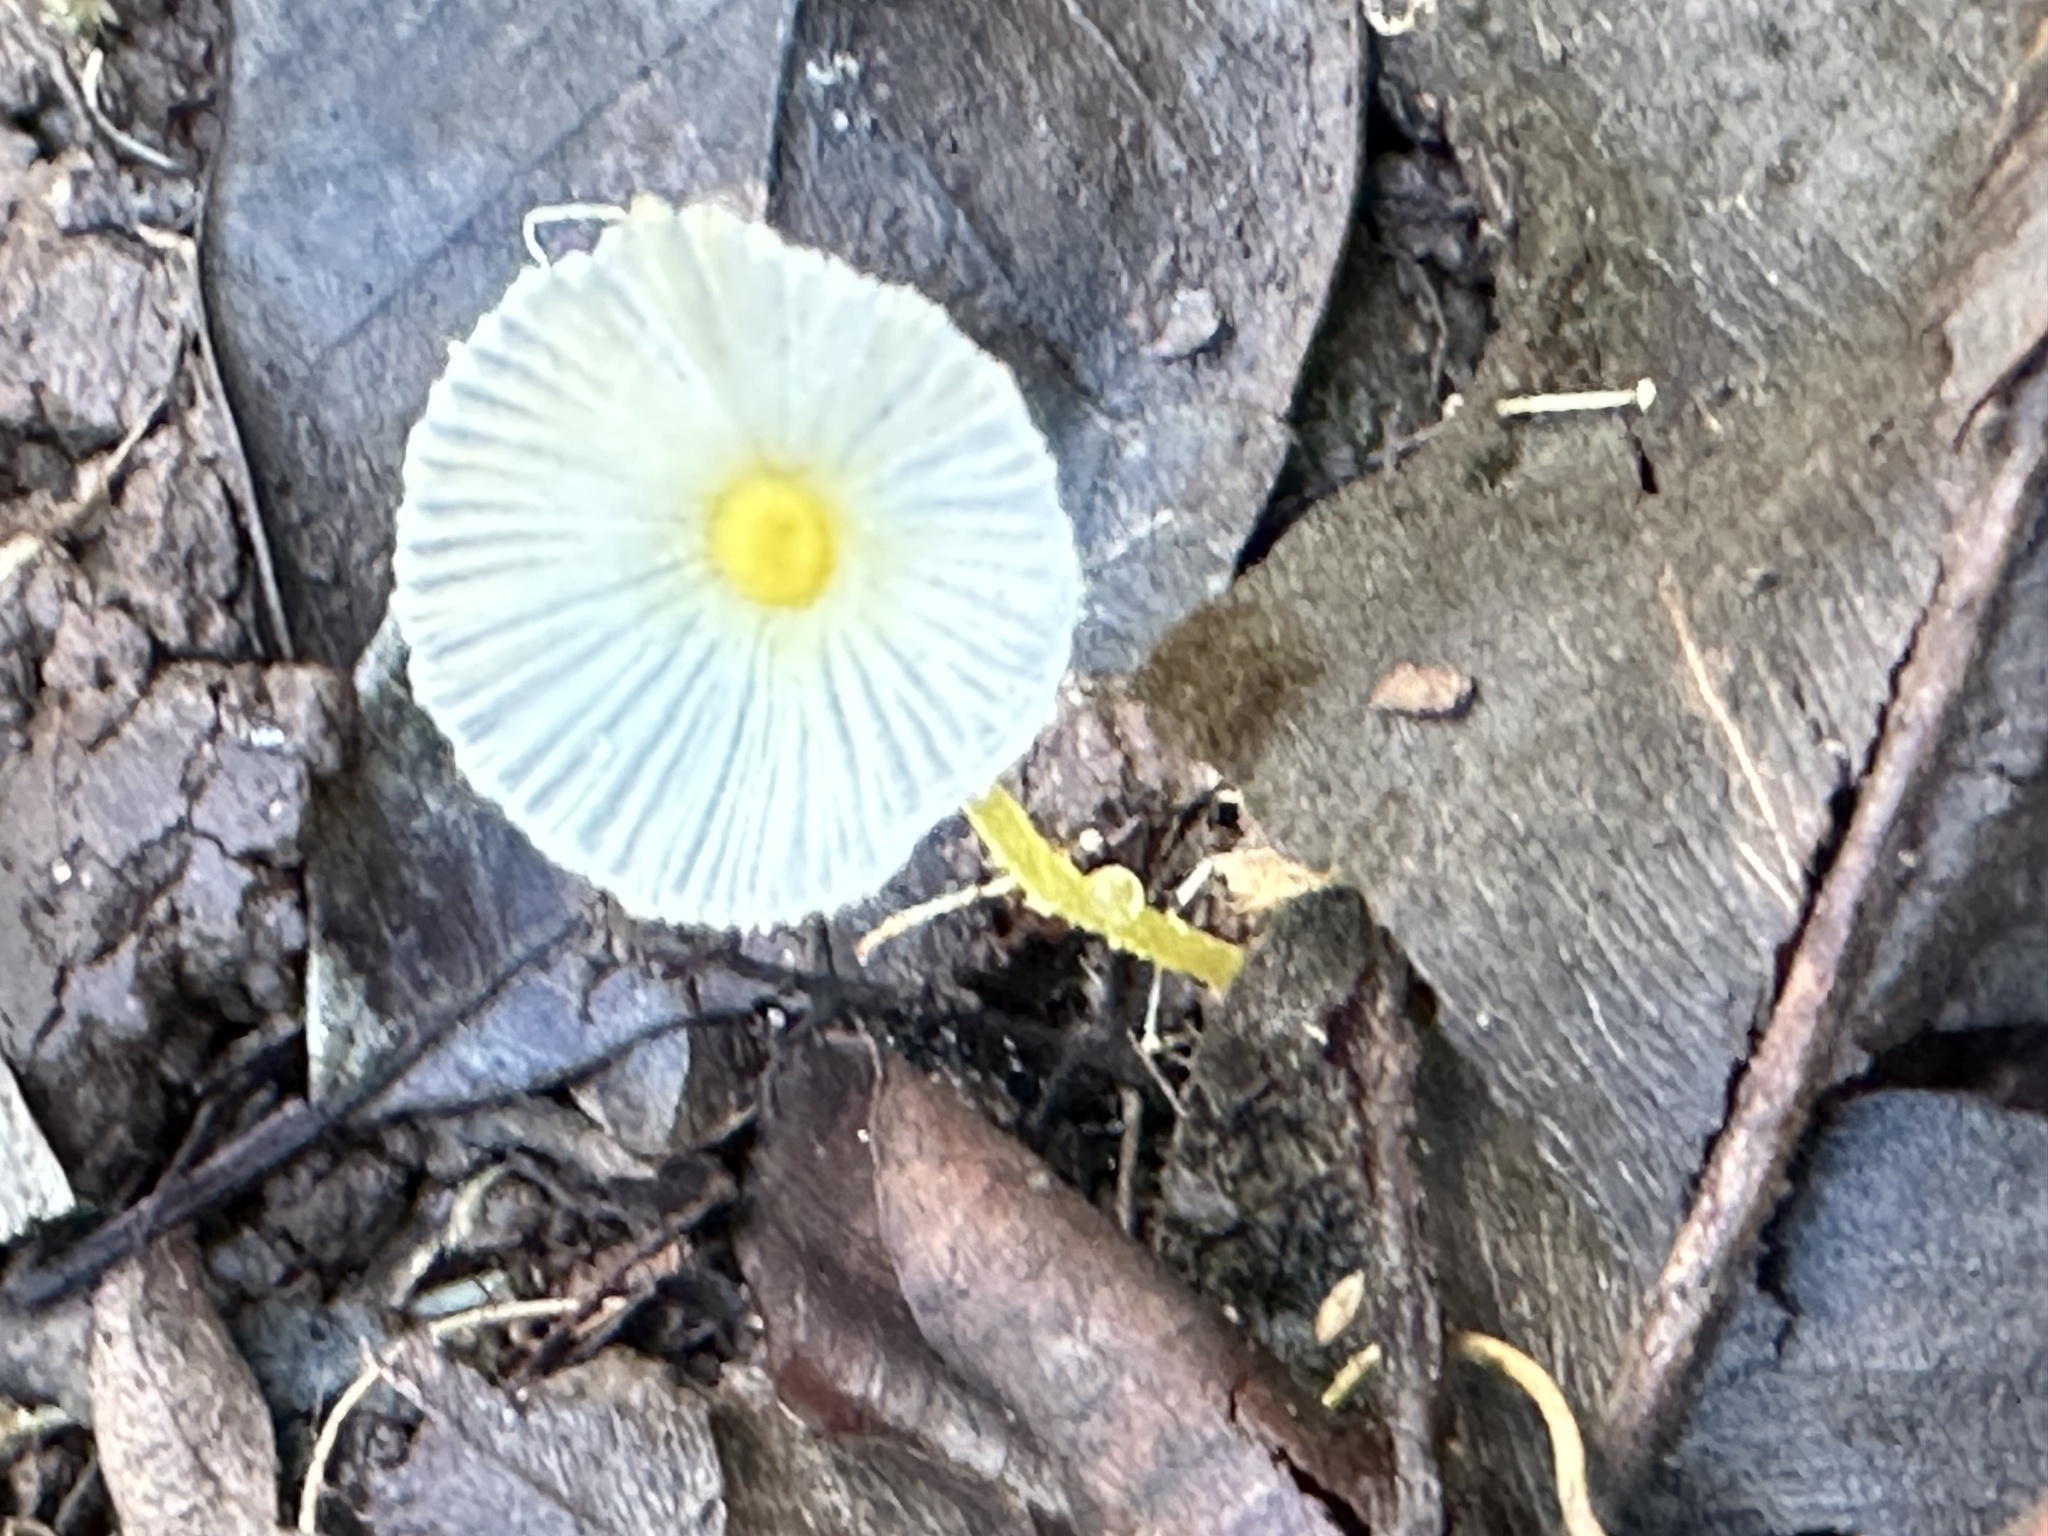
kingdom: Fungi
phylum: Basidiomycota
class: Agaricomycetes
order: Agaricales
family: Agaricaceae
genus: Leucocoprinus
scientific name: Leucocoprinus fragilissimus
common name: Fragile dapperling
